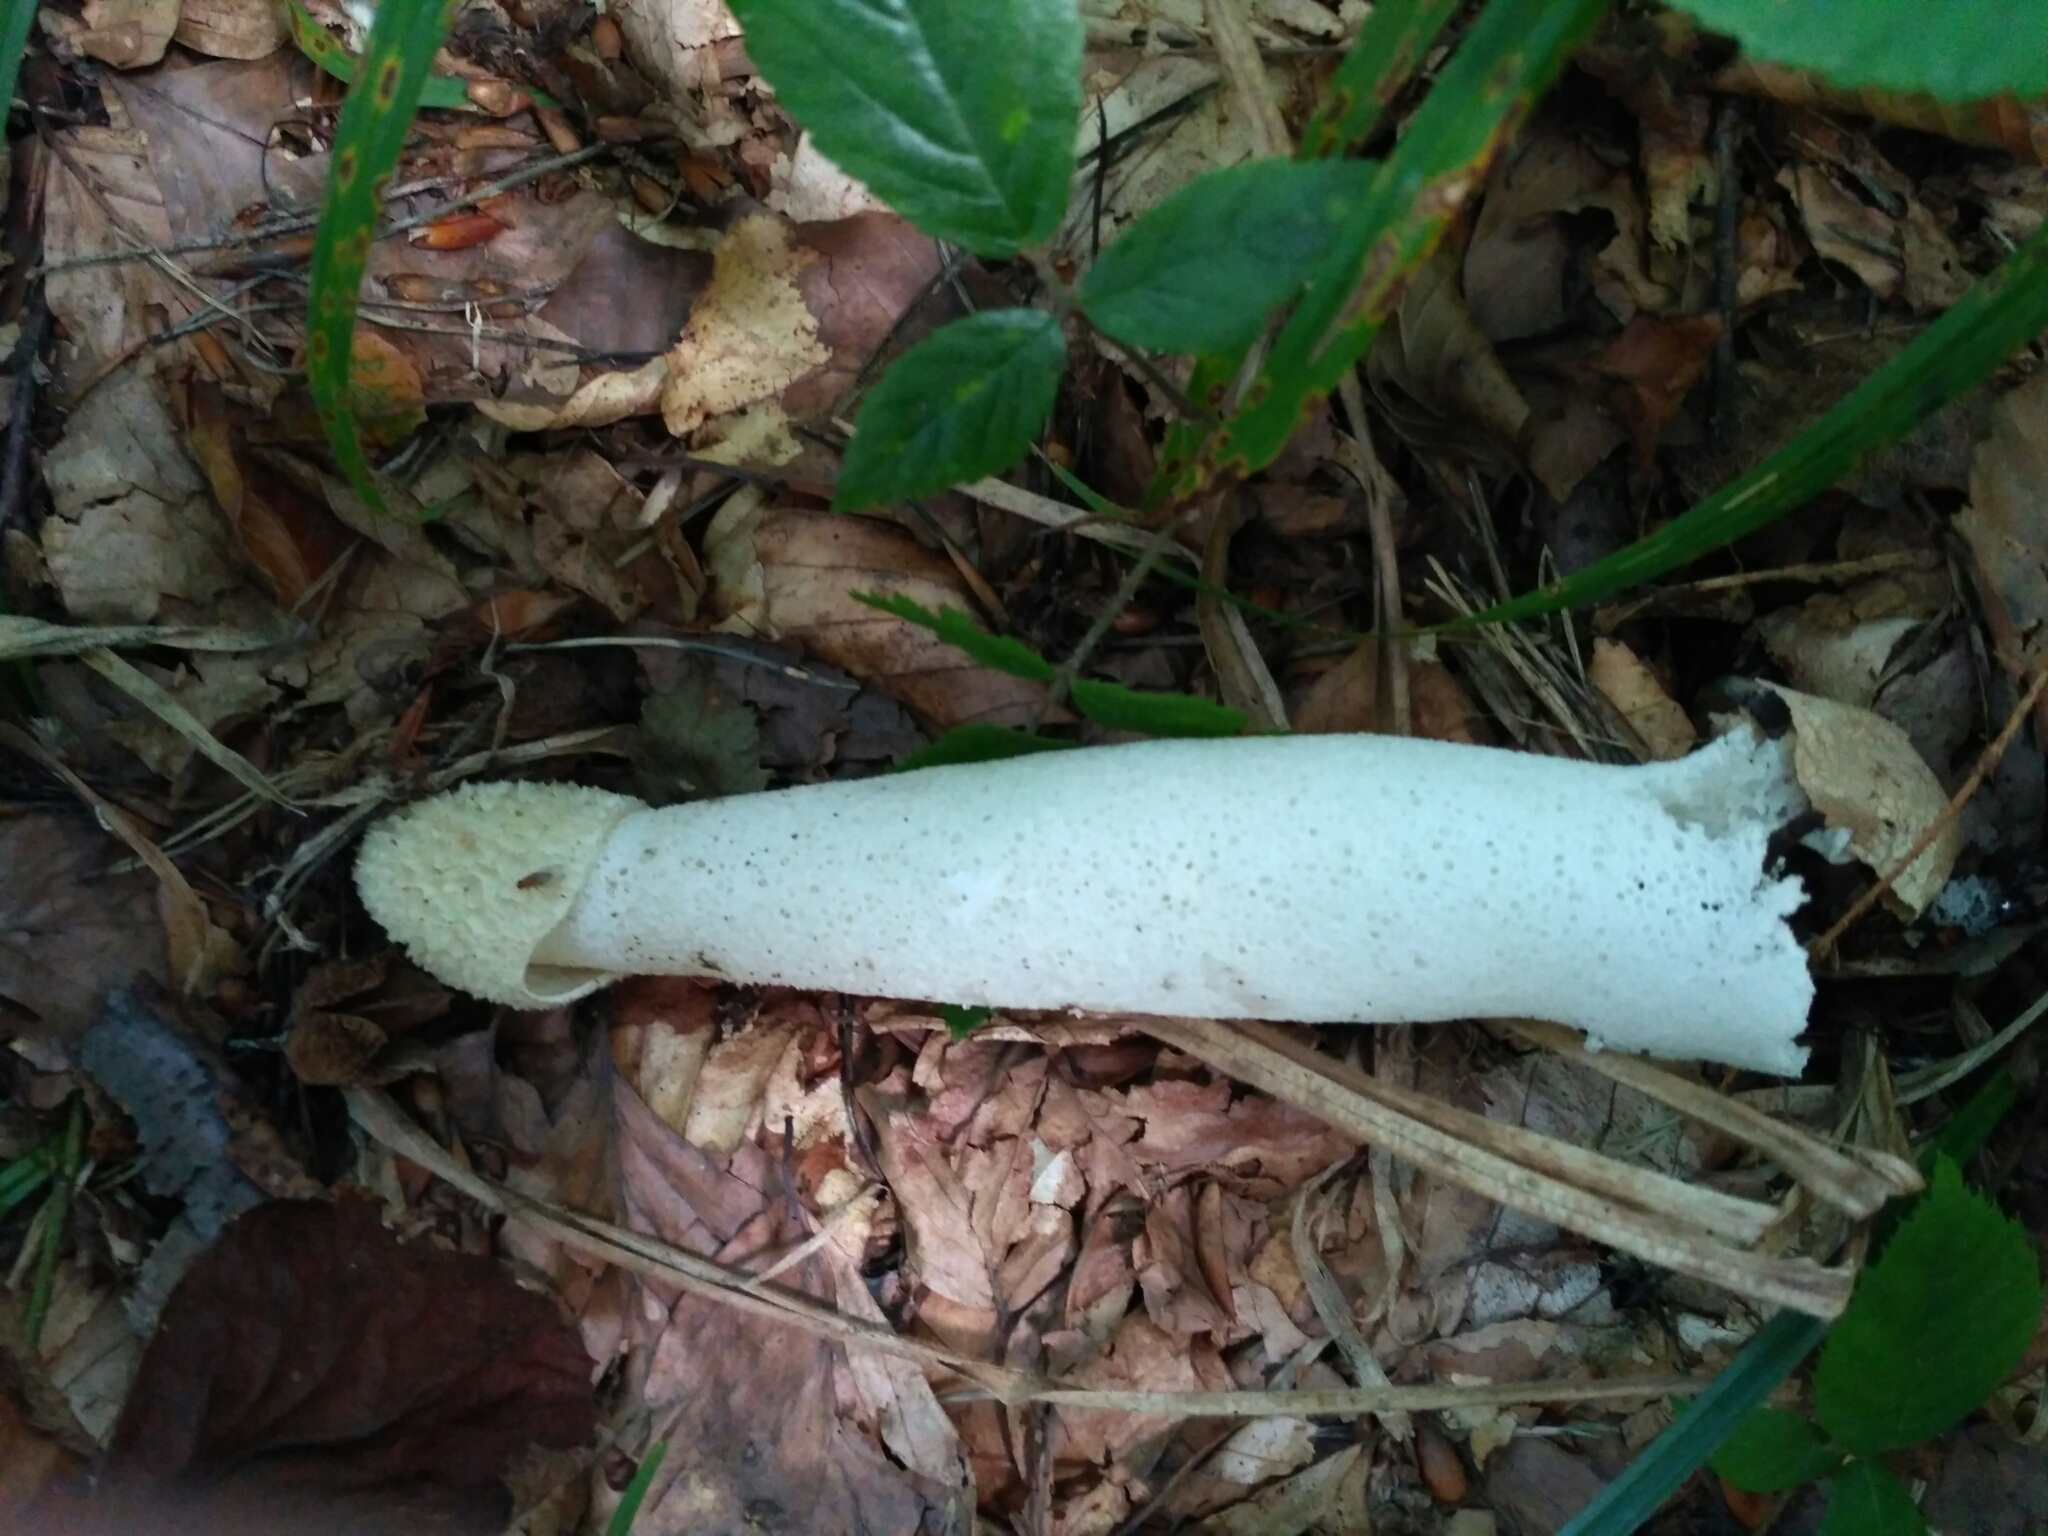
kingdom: Fungi
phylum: Basidiomycota
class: Agaricomycetes
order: Phallales
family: Phallaceae
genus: Phallus
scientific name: Phallus impudicus
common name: Common stinkhorn
